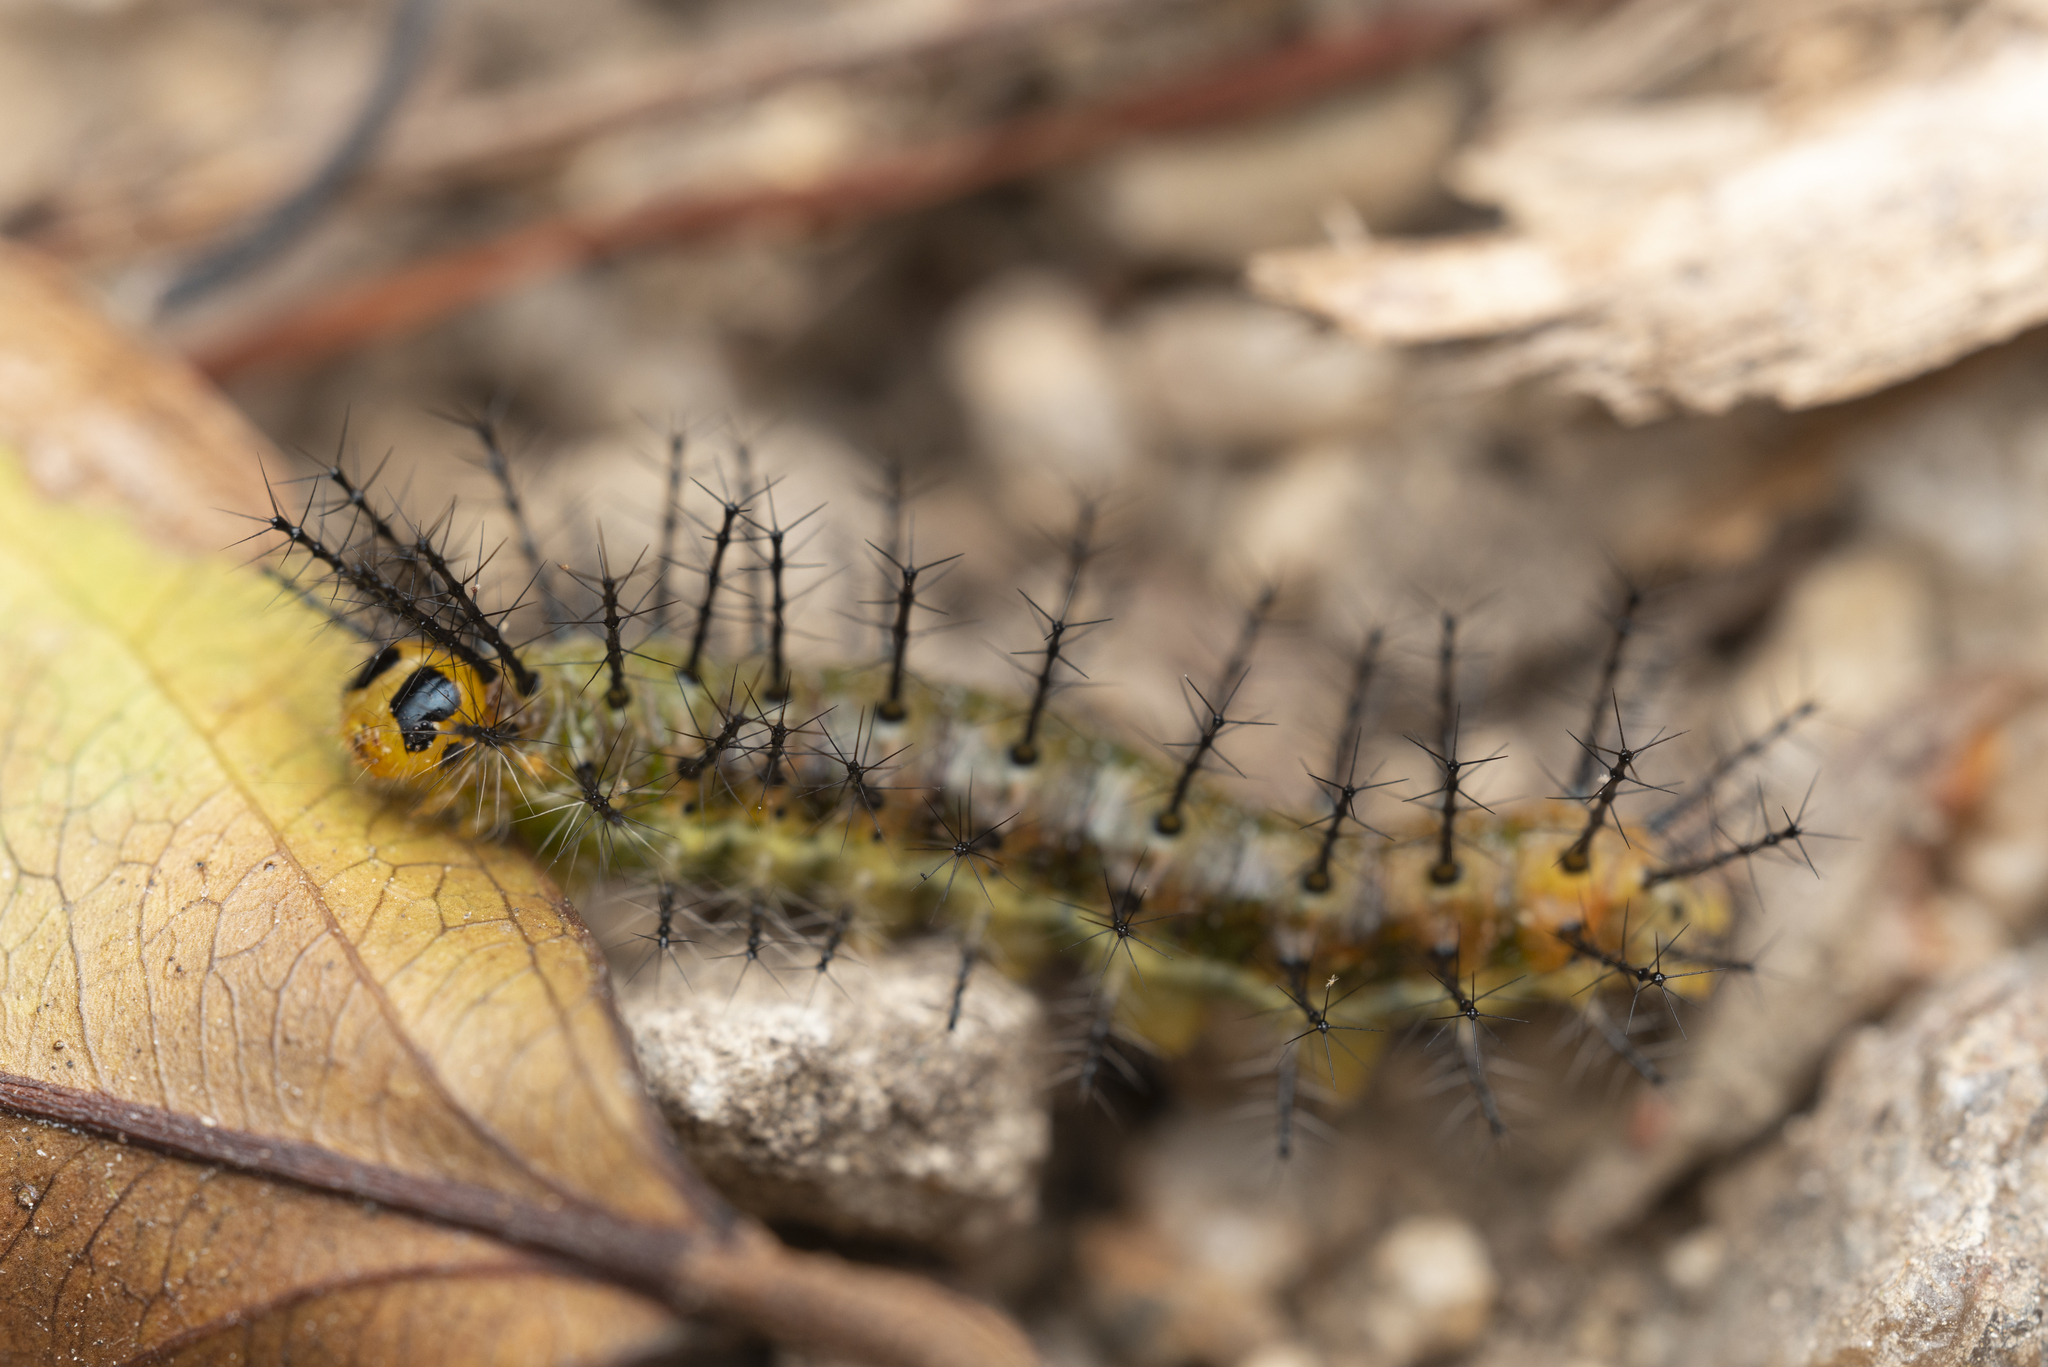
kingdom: Animalia
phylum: Arthropoda
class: Insecta
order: Lepidoptera
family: Nymphalidae
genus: Cupha
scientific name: Cupha erymanthis
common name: Rustic
